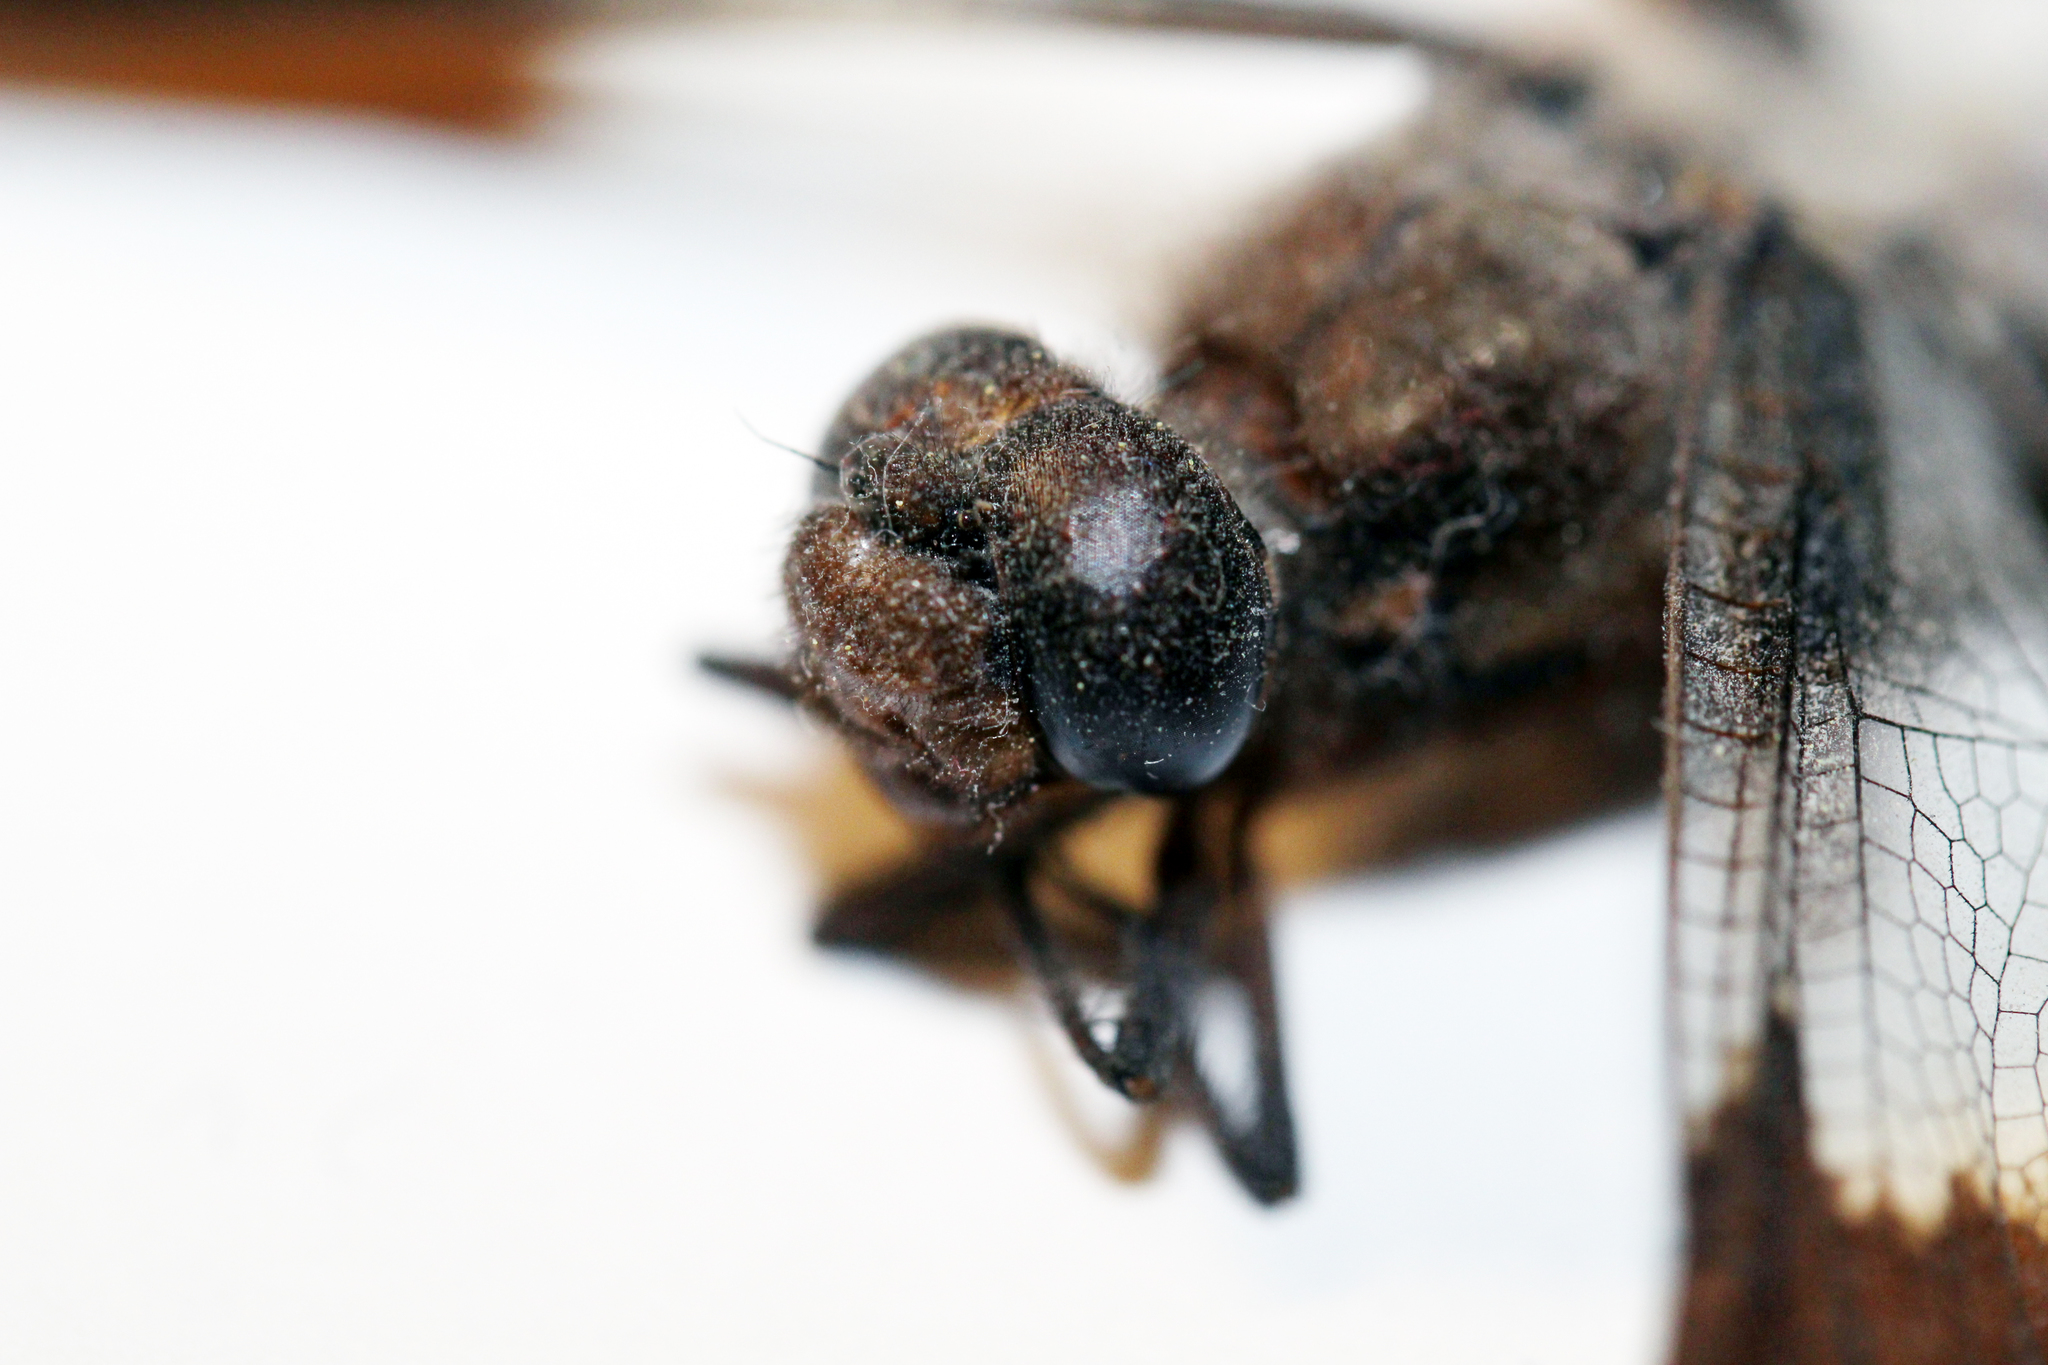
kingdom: Animalia
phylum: Arthropoda
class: Insecta
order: Odonata
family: Libellulidae
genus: Plathemis
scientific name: Plathemis lydia
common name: Common whitetail
